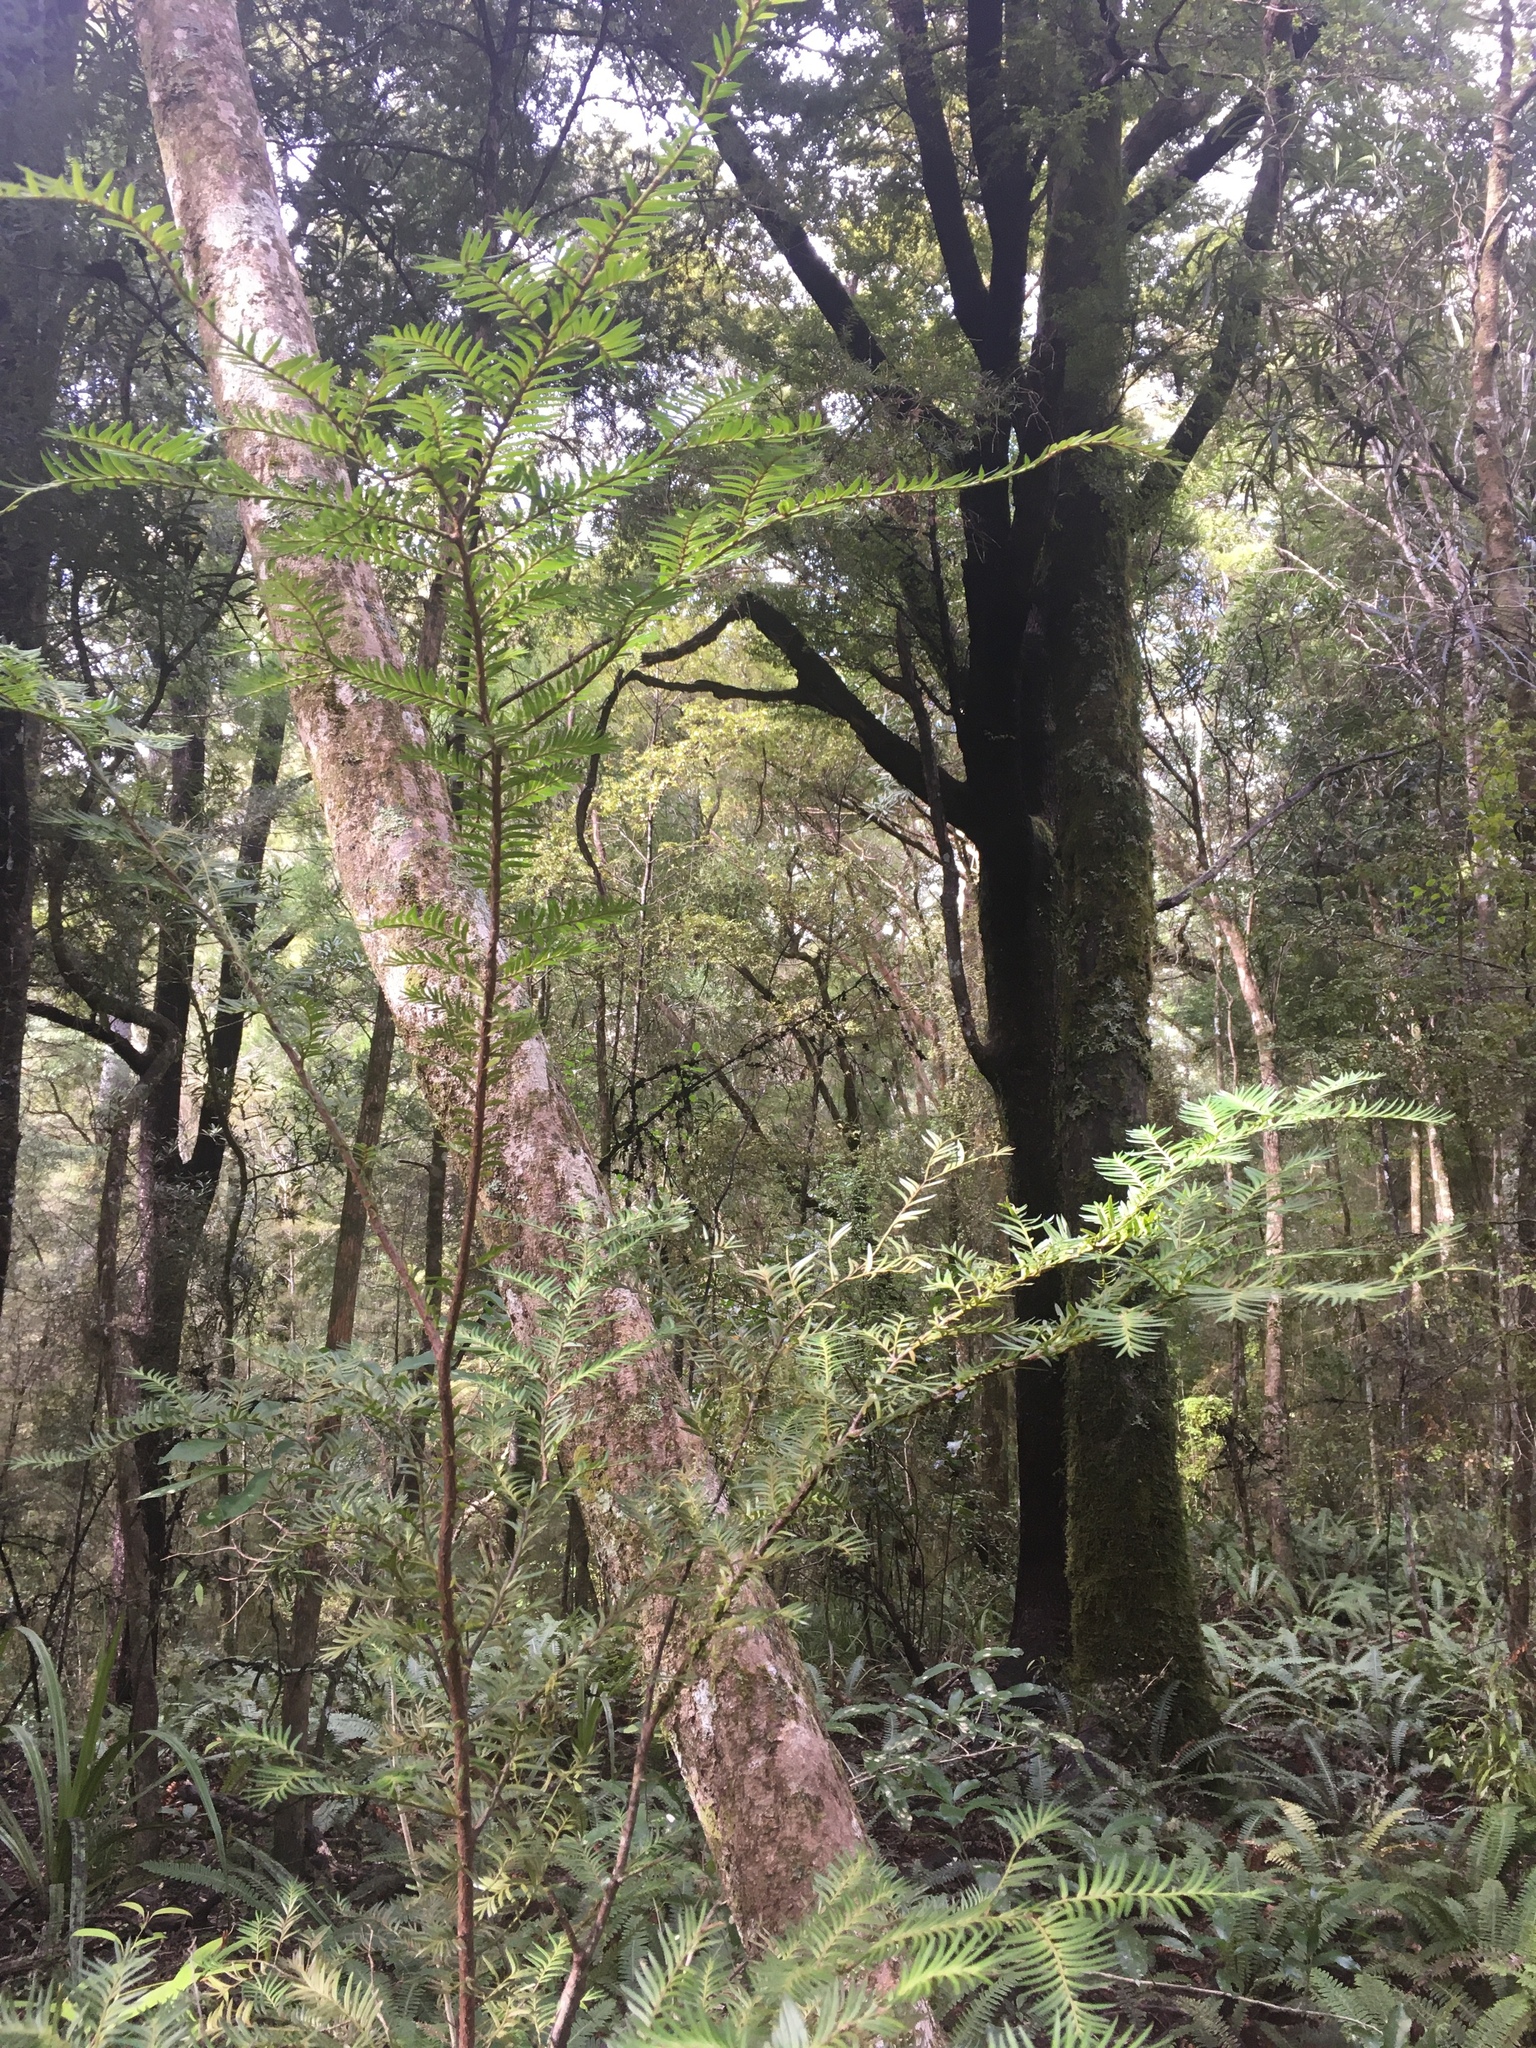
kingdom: Plantae
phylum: Tracheophyta
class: Pinopsida
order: Pinales
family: Podocarpaceae
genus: Prumnopitys
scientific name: Prumnopitys ferruginea
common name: Brown pine
